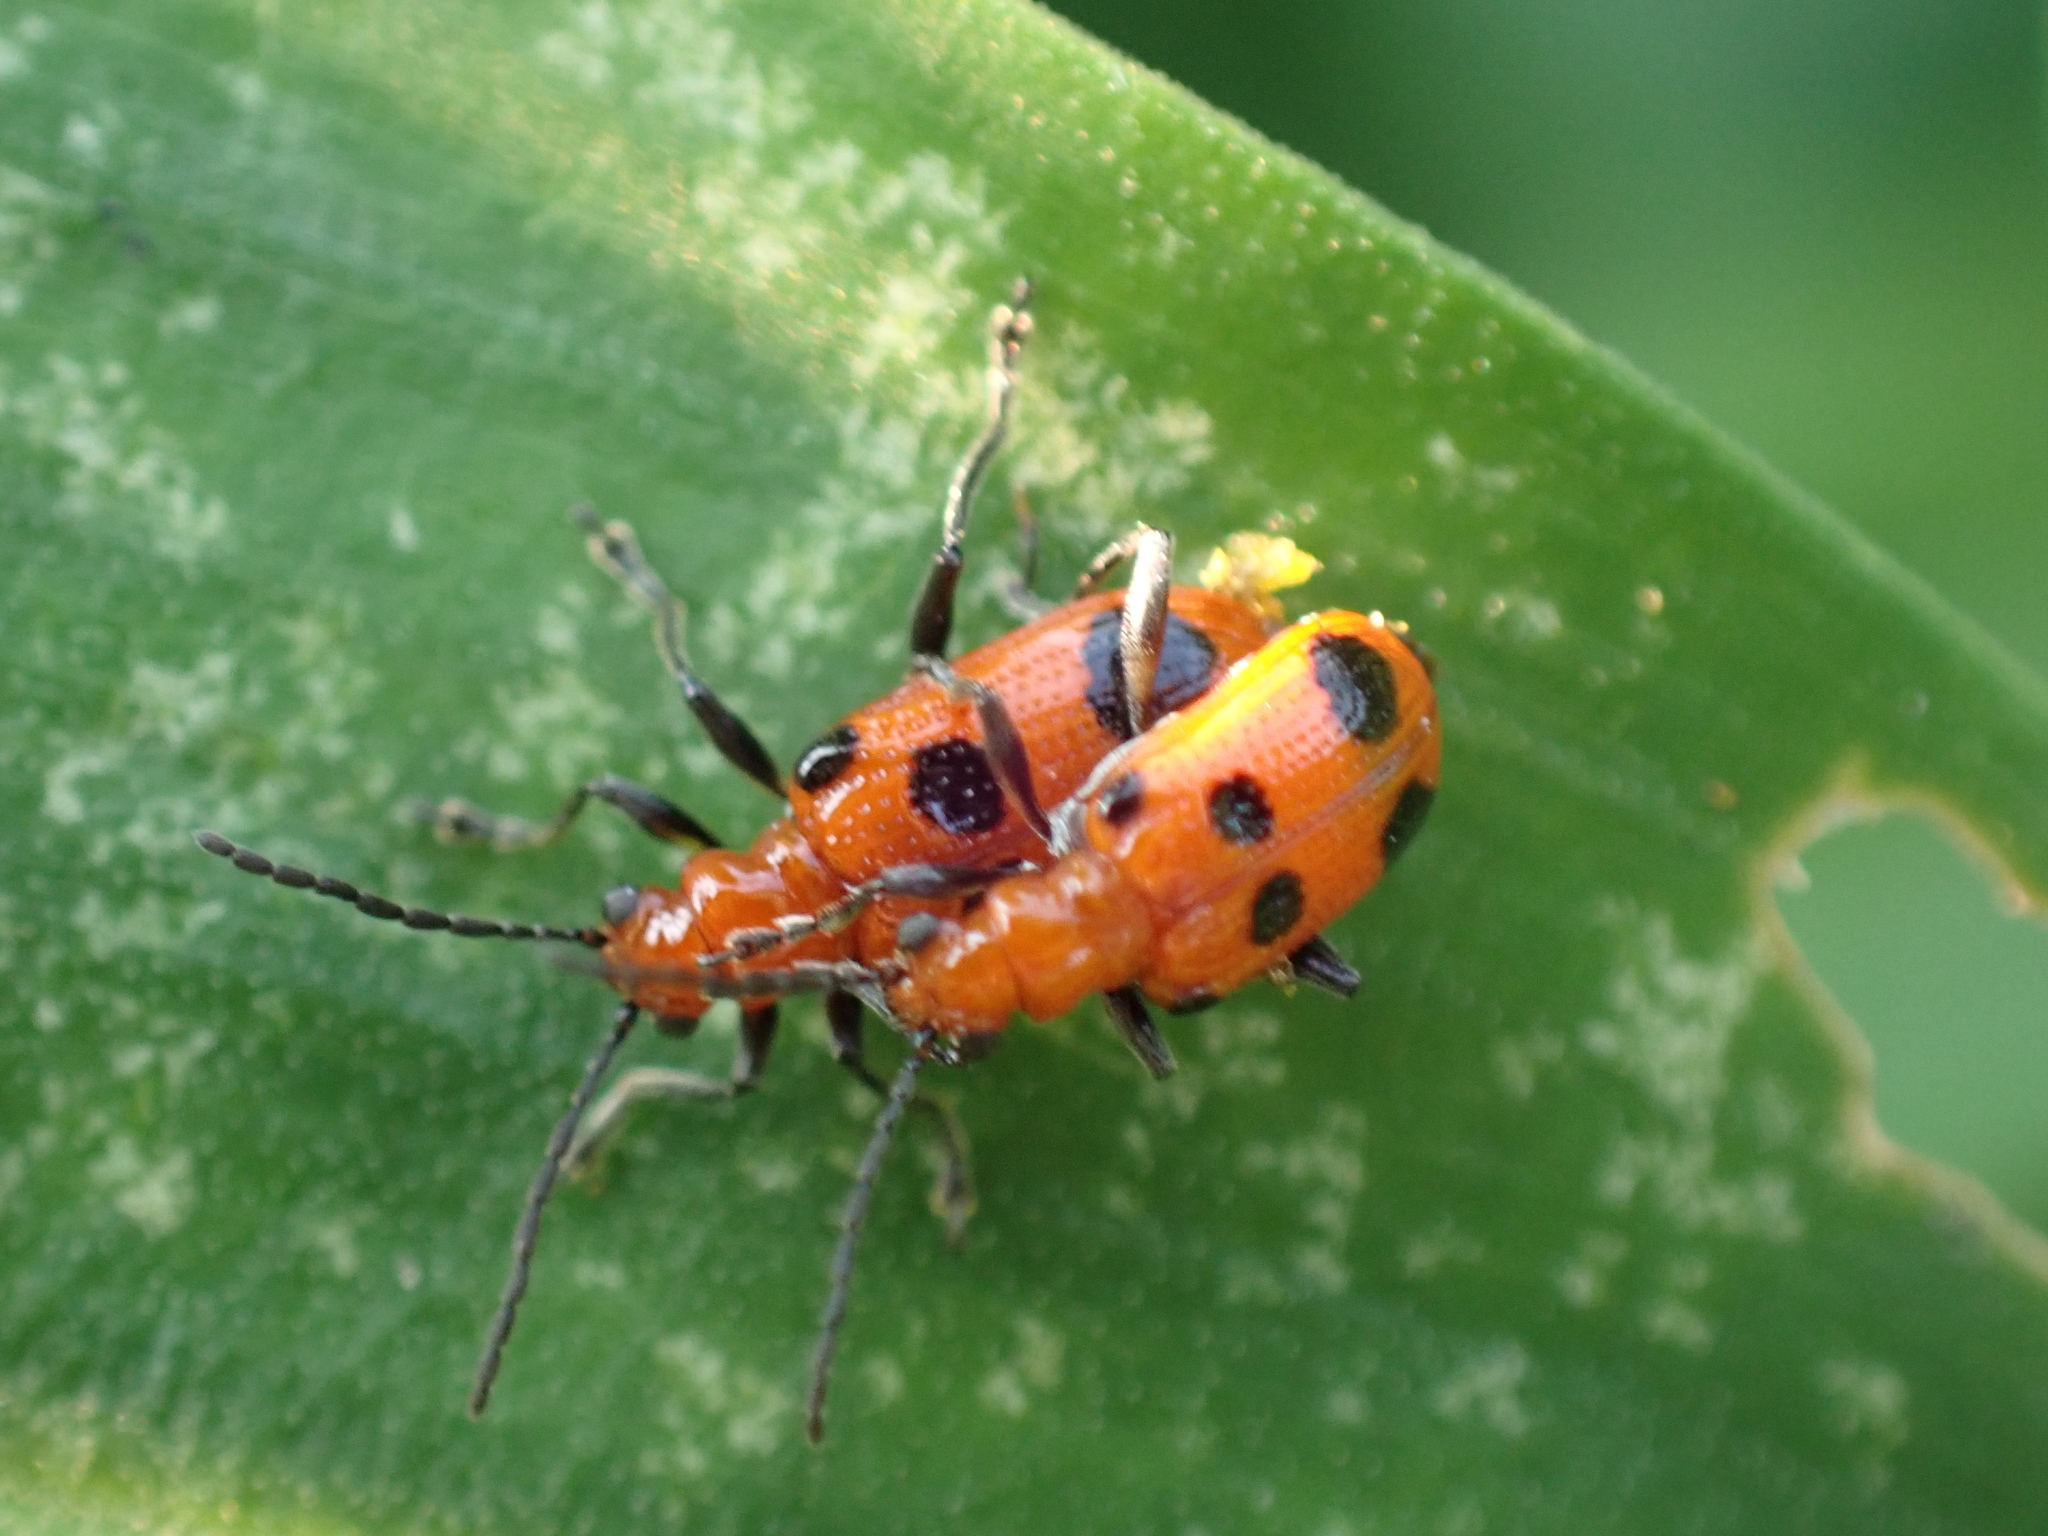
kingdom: Animalia
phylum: Arthropoda
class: Insecta
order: Coleoptera
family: Chrysomelidae
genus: Neolema
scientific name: Neolema sexpunctata
